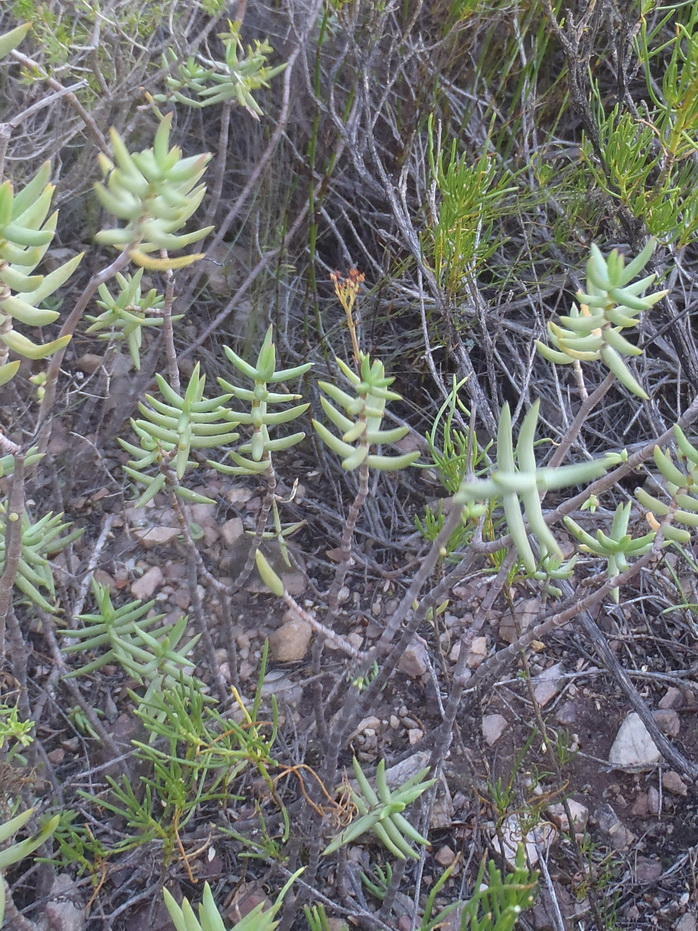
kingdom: Plantae
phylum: Tracheophyta
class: Magnoliopsida
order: Saxifragales
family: Crassulaceae
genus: Crassula
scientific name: Crassula tetragona
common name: Pygmyweed
